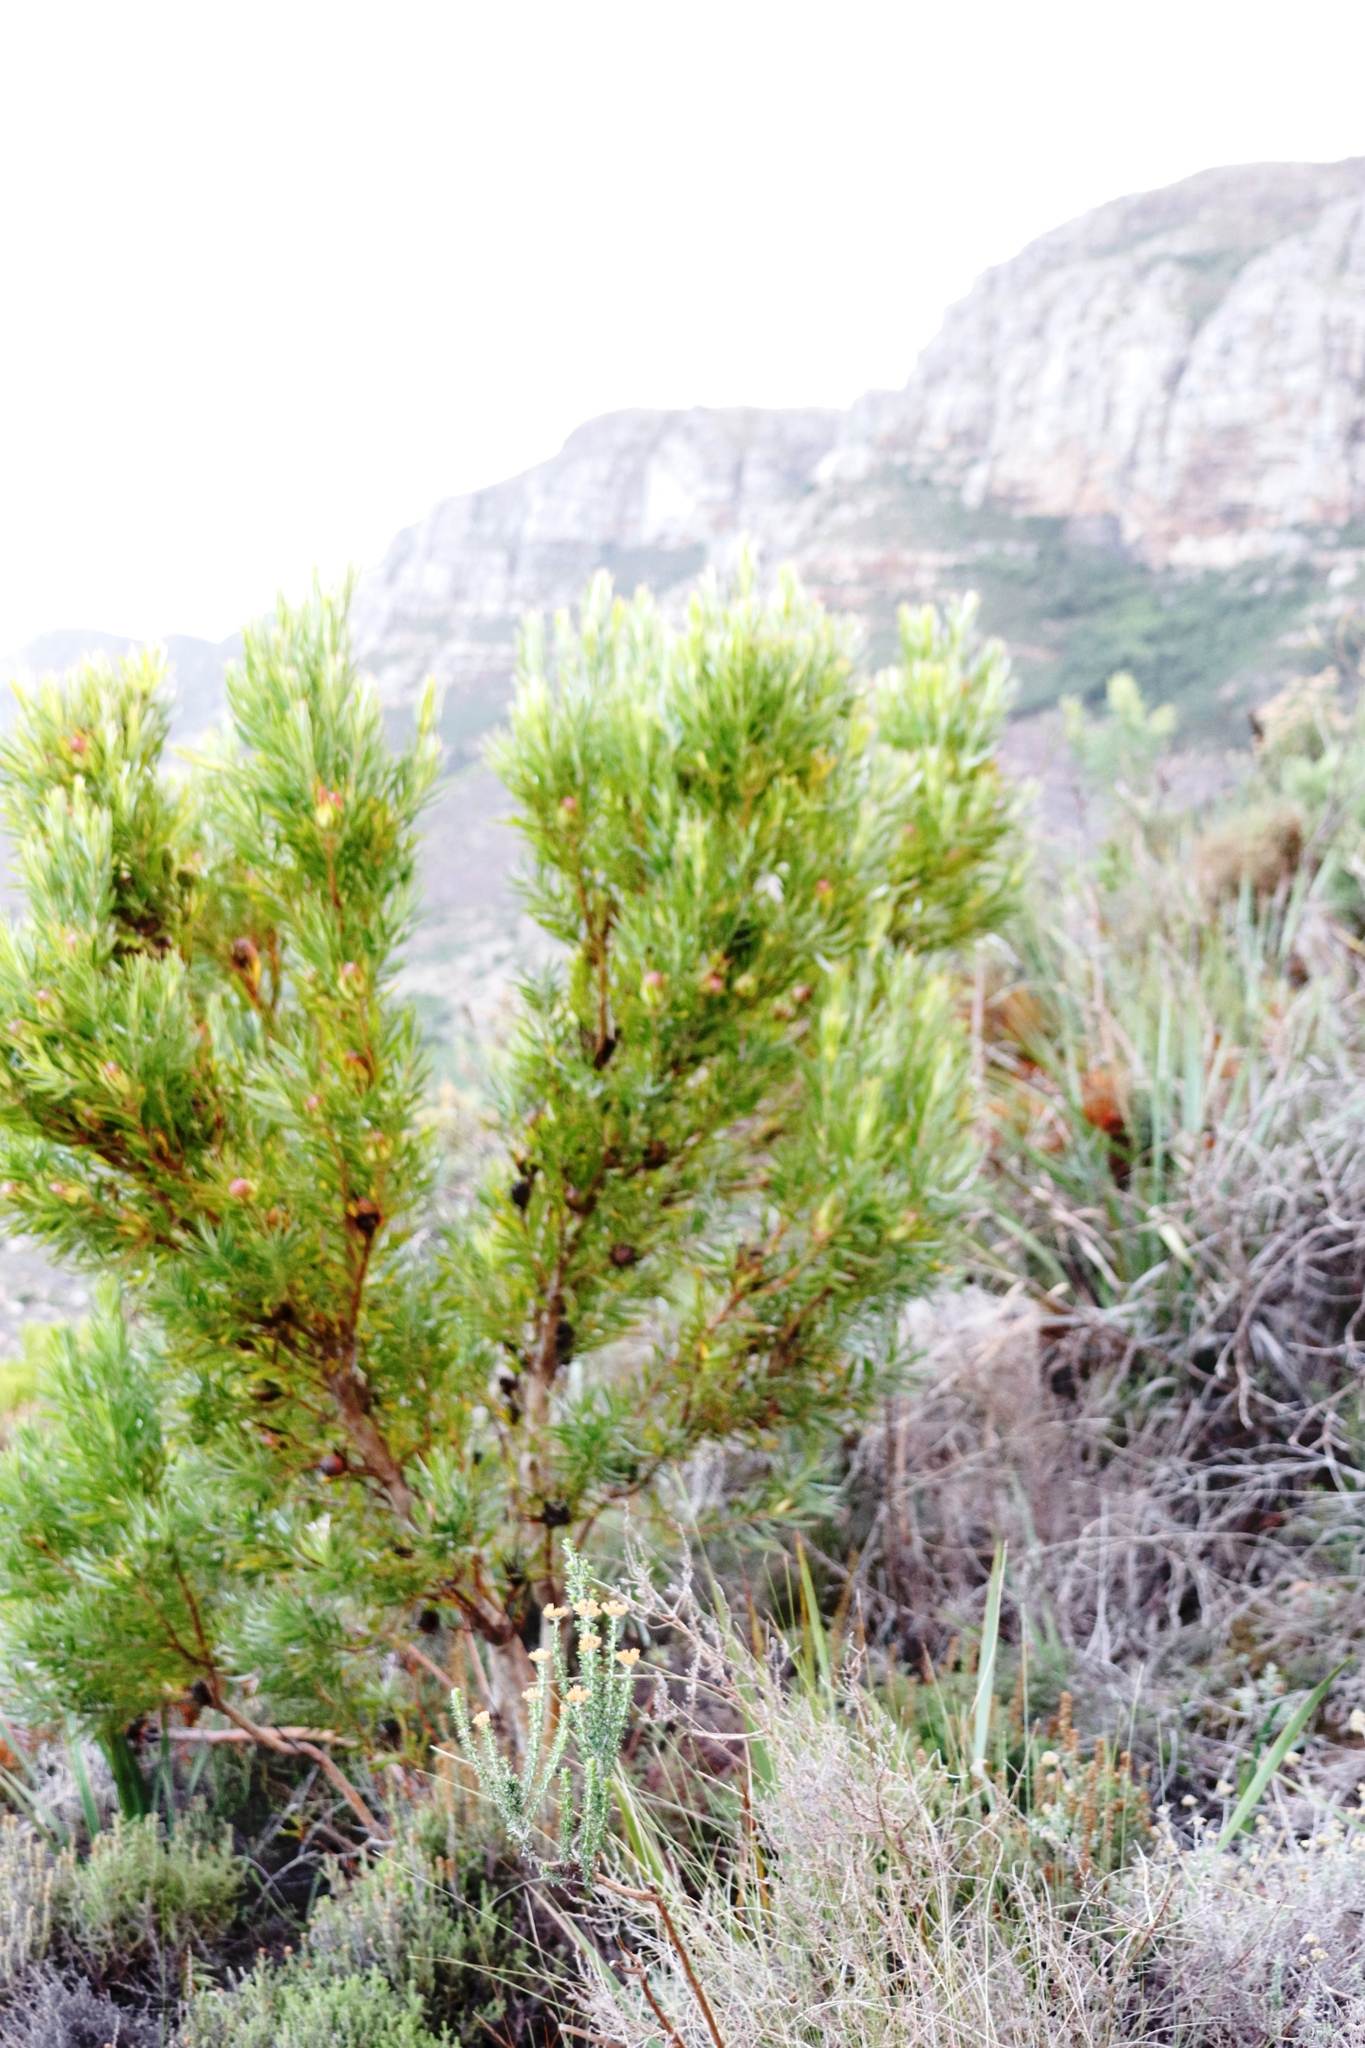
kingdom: Plantae
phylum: Tracheophyta
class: Magnoliopsida
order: Proteales
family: Proteaceae
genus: Leucadendron
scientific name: Leucadendron xanthoconus
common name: Sickle-leaf conebush
